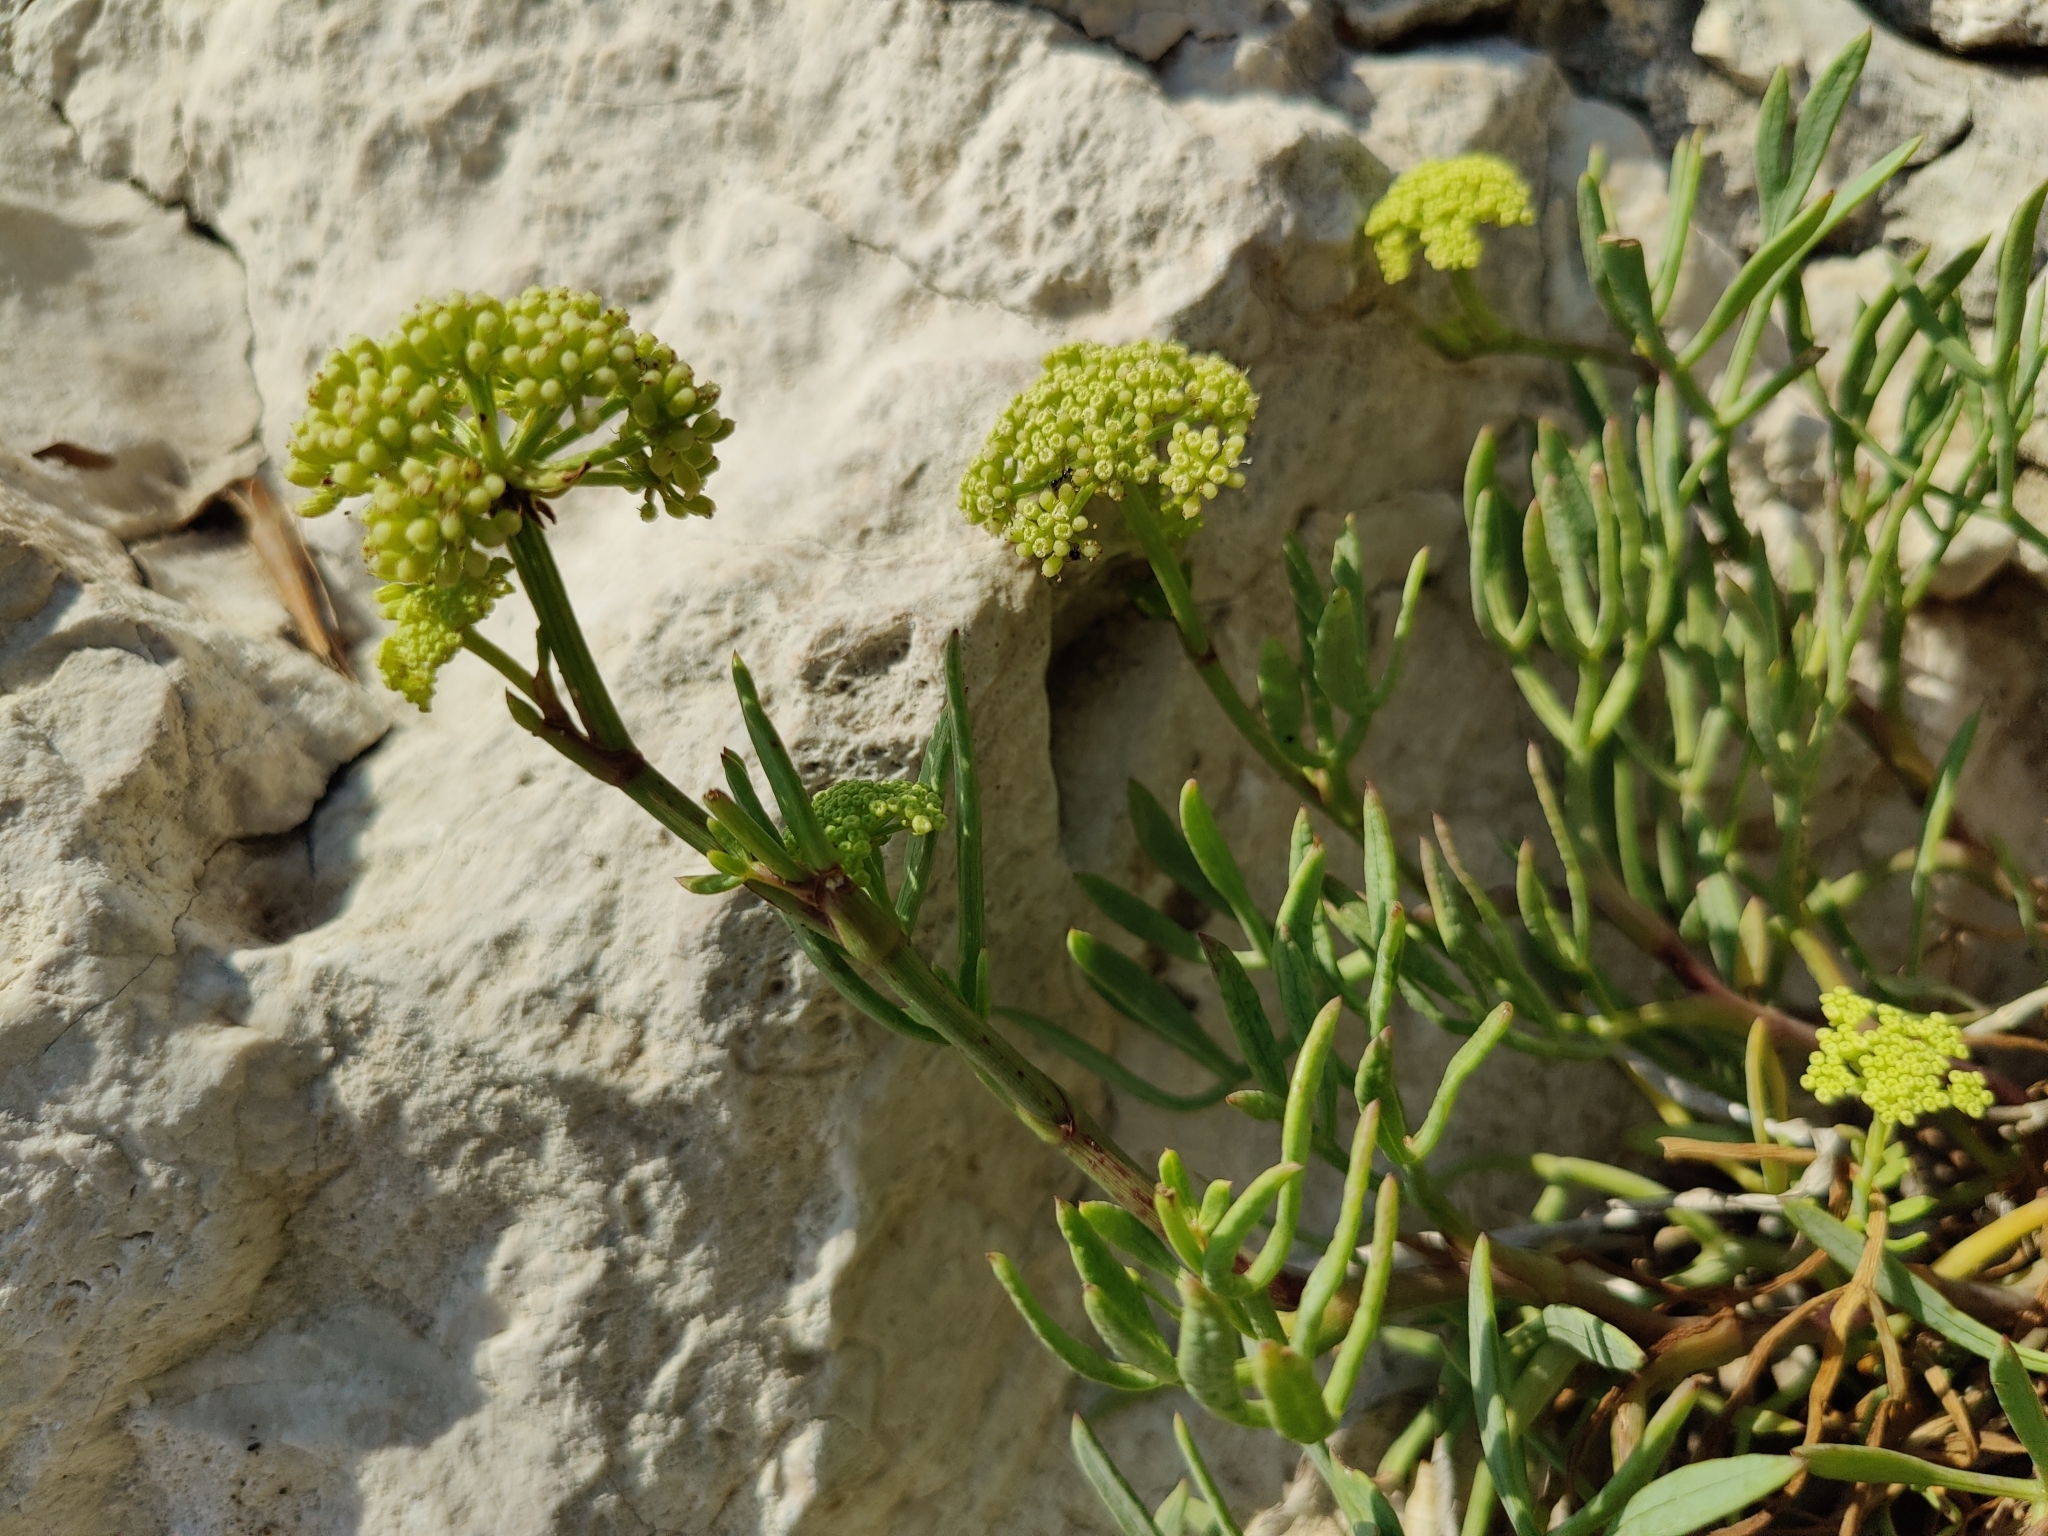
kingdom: Plantae
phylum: Tracheophyta
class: Magnoliopsida
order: Apiales
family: Apiaceae
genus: Crithmum
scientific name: Crithmum maritimum
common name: Rock samphire
